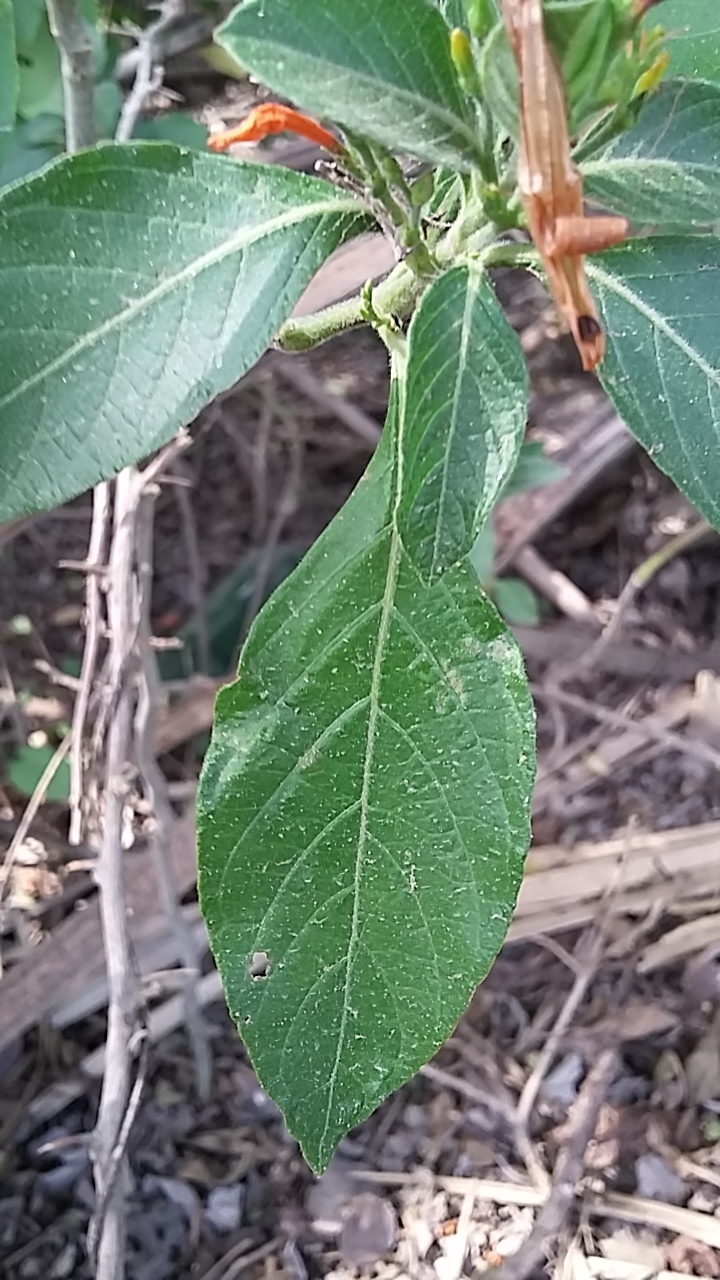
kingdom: Plantae
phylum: Tracheophyta
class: Magnoliopsida
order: Lamiales
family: Acanthaceae
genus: Justicia
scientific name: Justicia spicigera
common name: Mohintli
